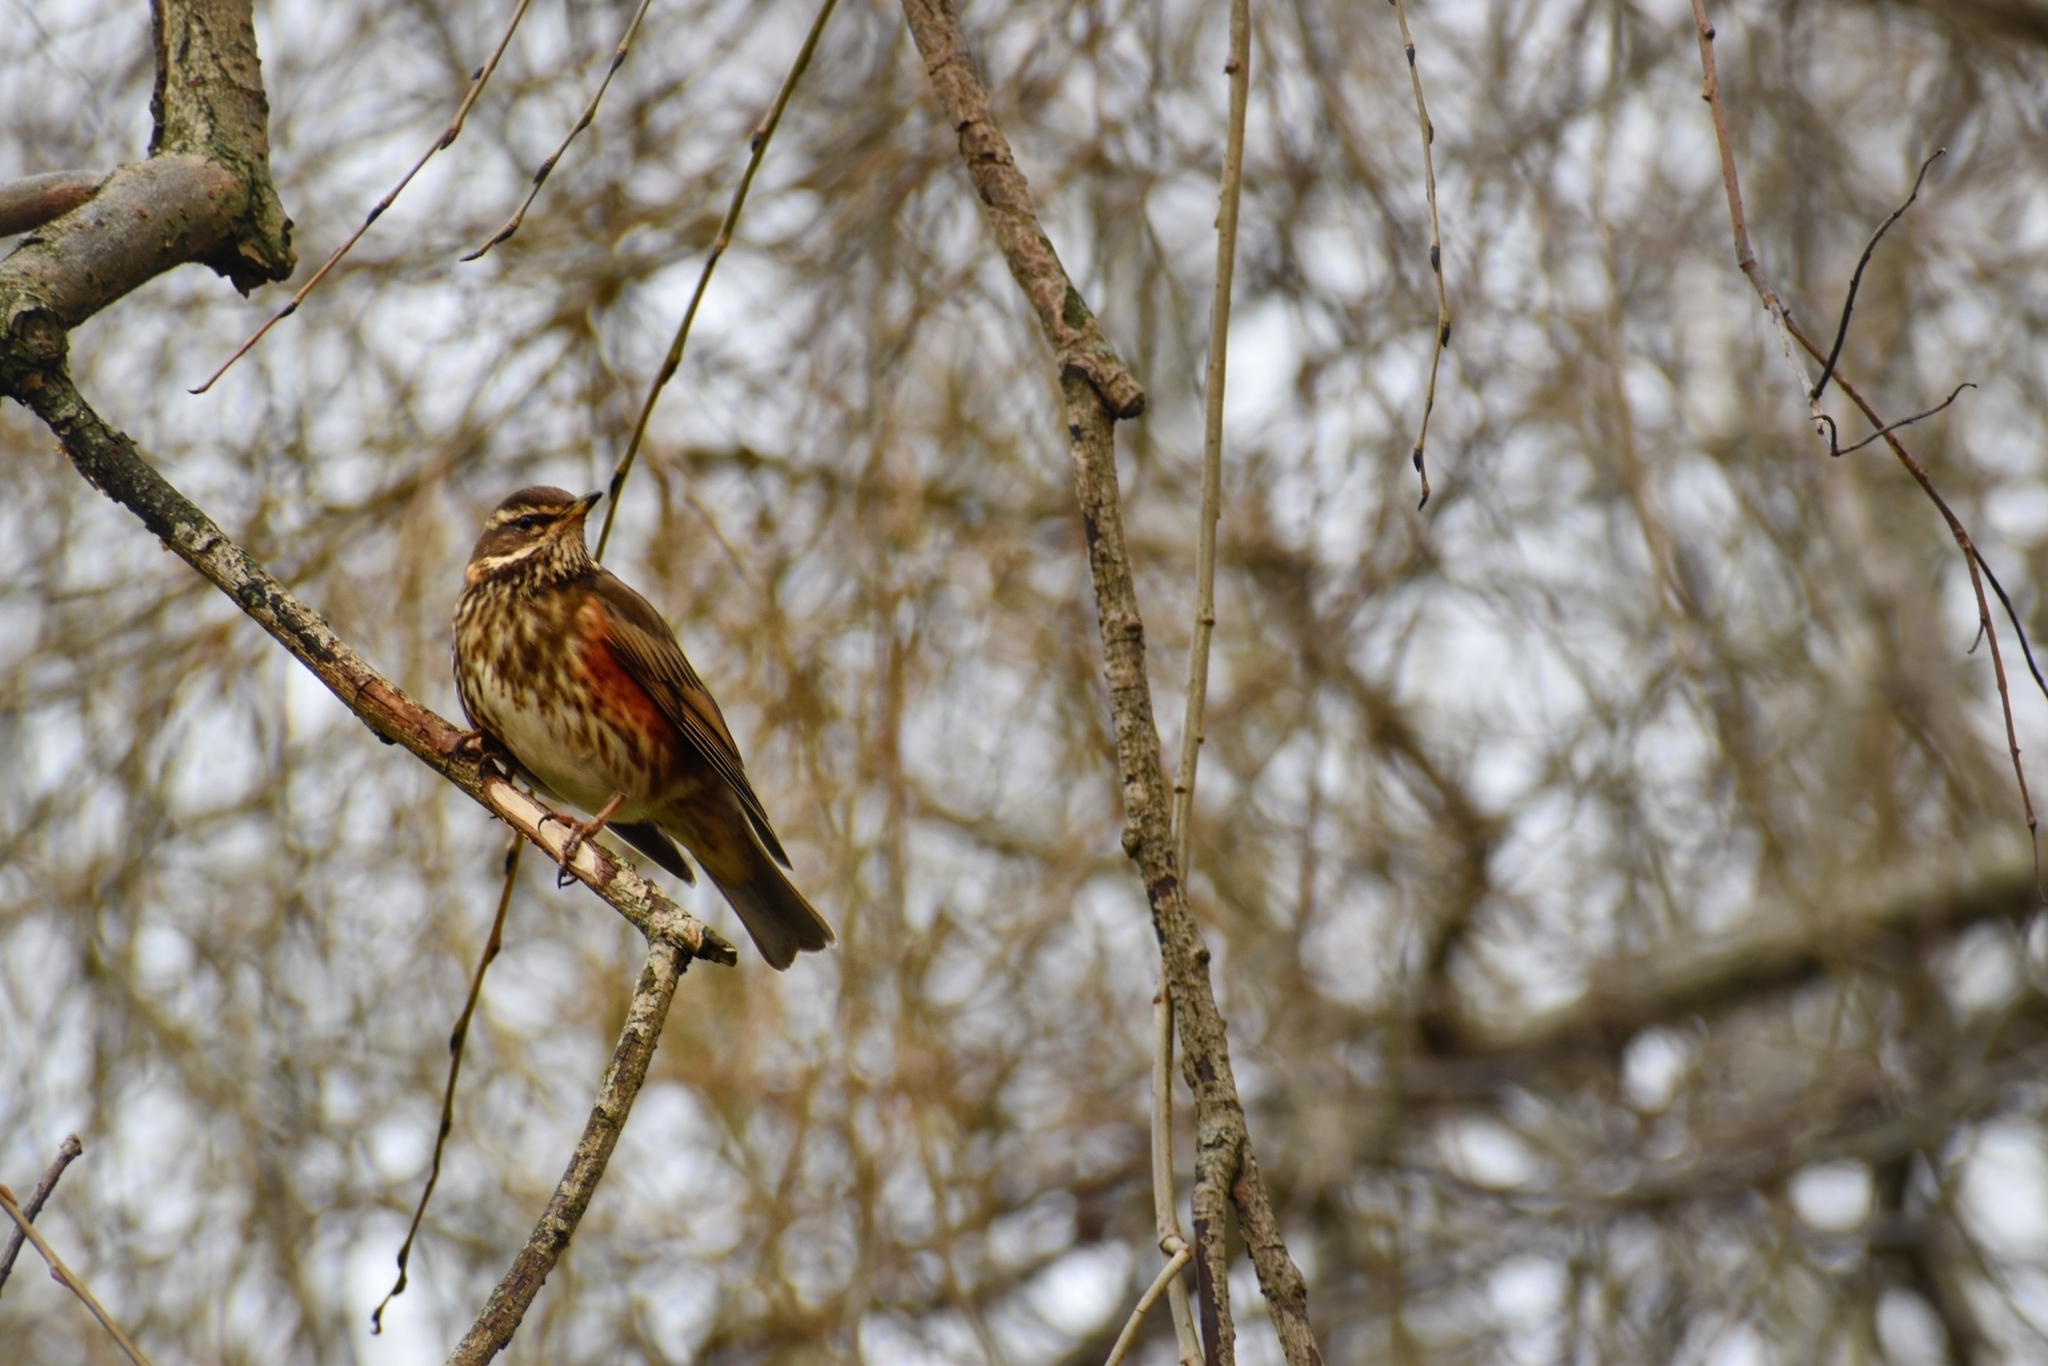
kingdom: Animalia
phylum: Chordata
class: Aves
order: Passeriformes
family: Turdidae
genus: Turdus
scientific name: Turdus iliacus
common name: Redwing
